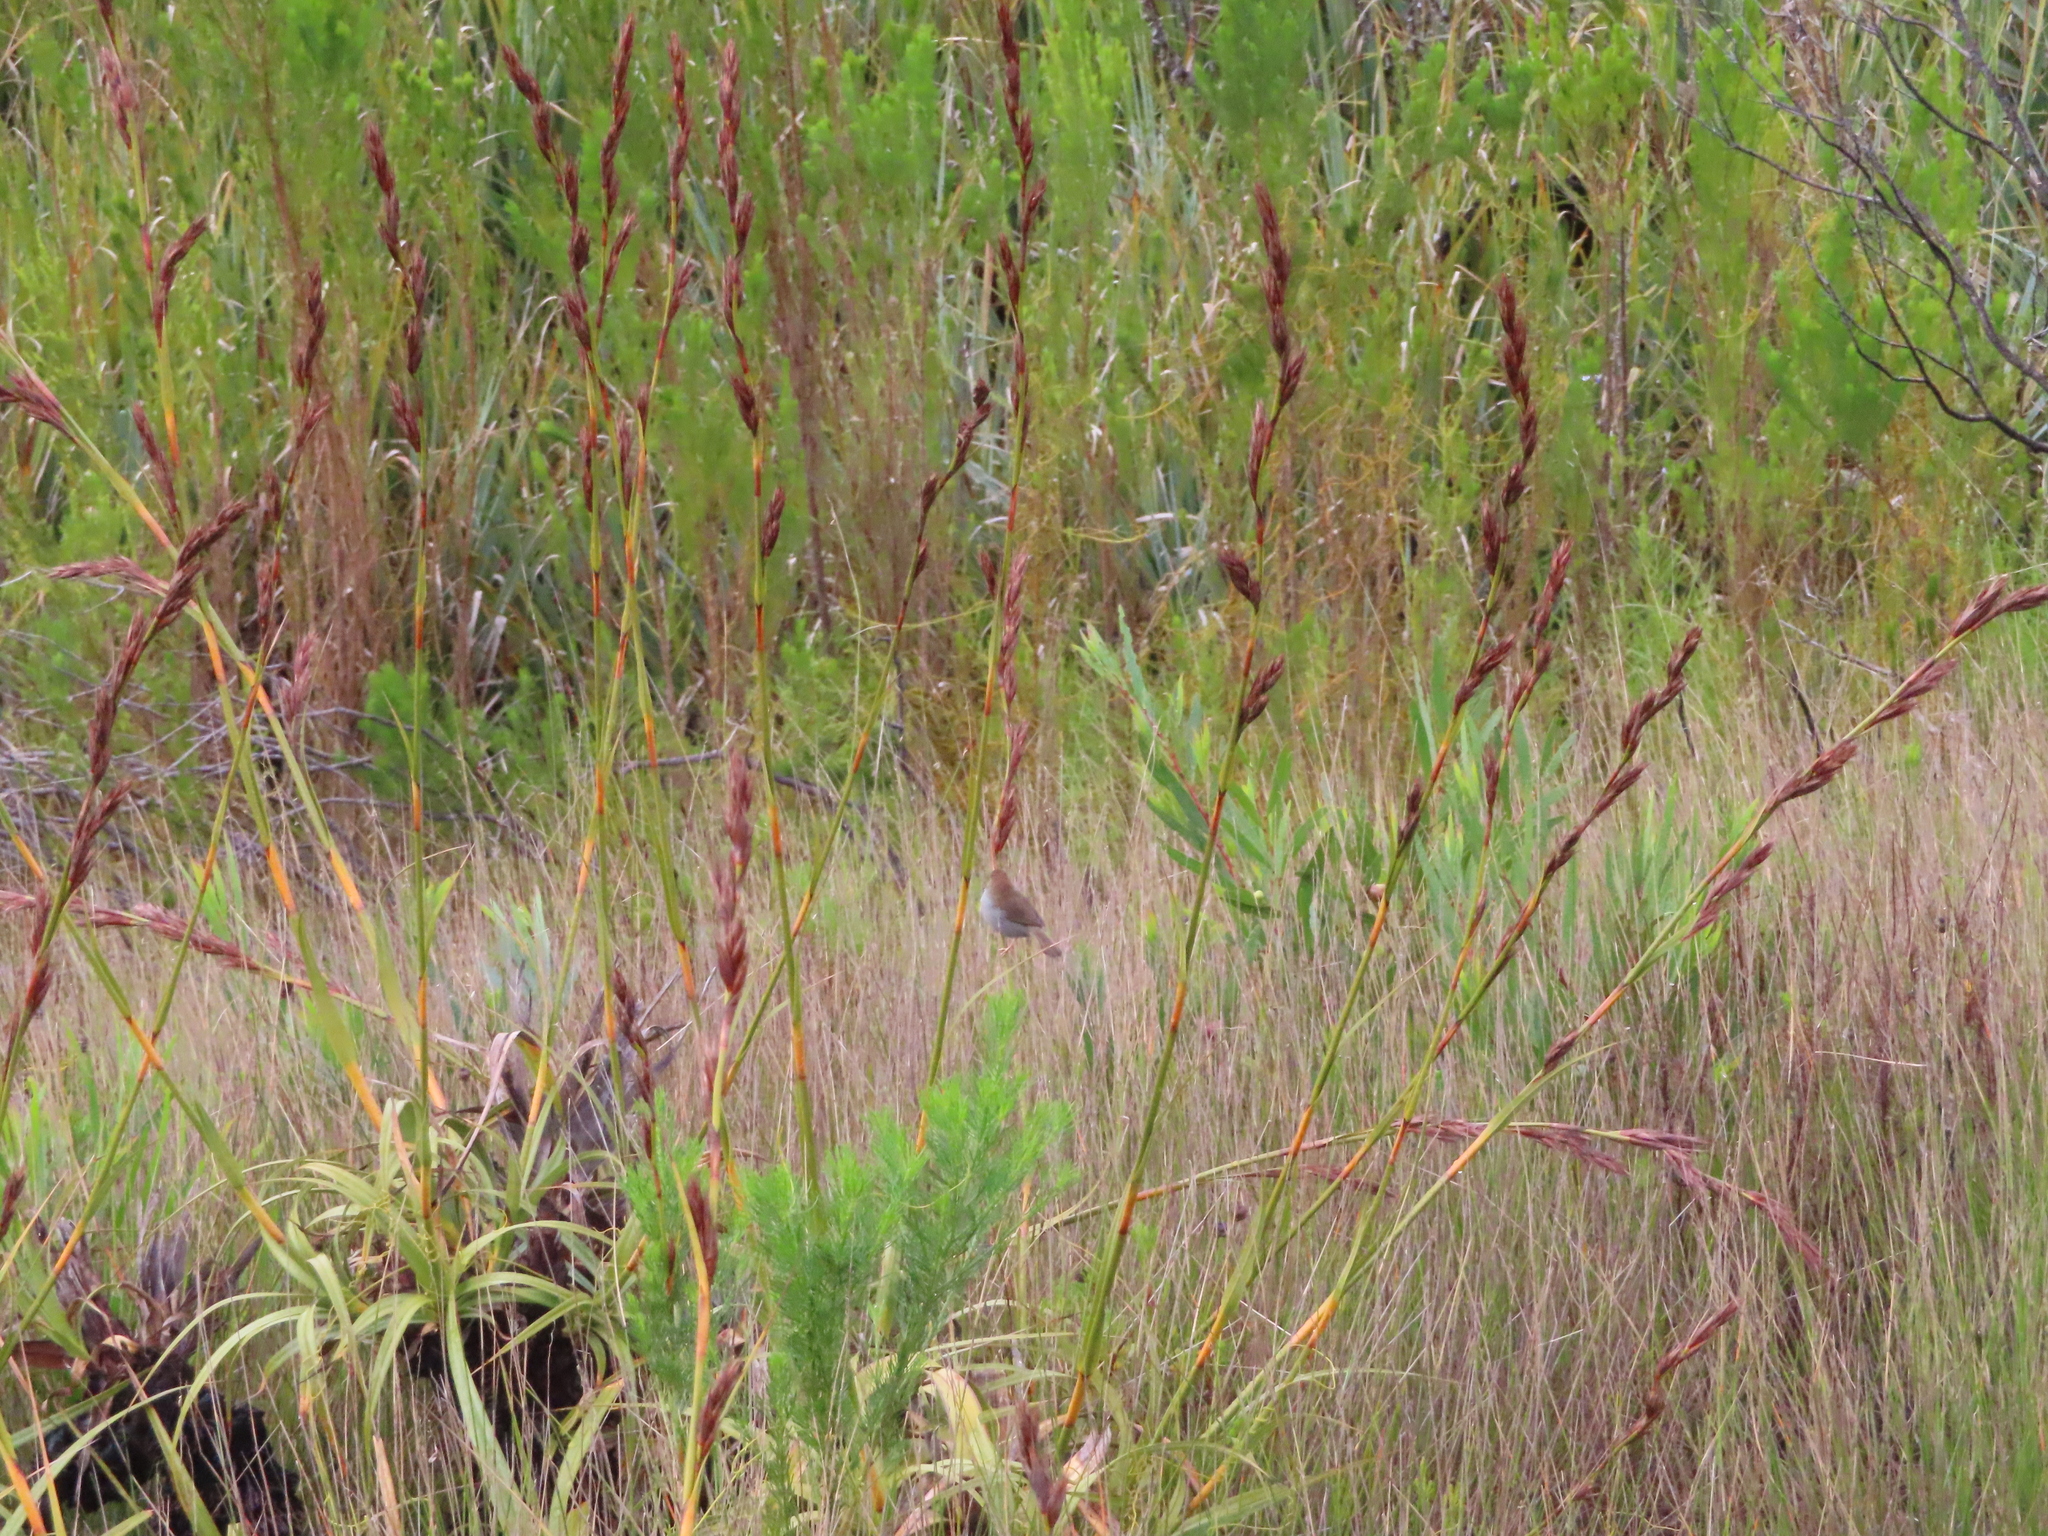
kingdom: Plantae
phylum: Tracheophyta
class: Liliopsida
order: Poales
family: Cyperaceae
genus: Tetraria
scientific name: Tetraria thermalis
